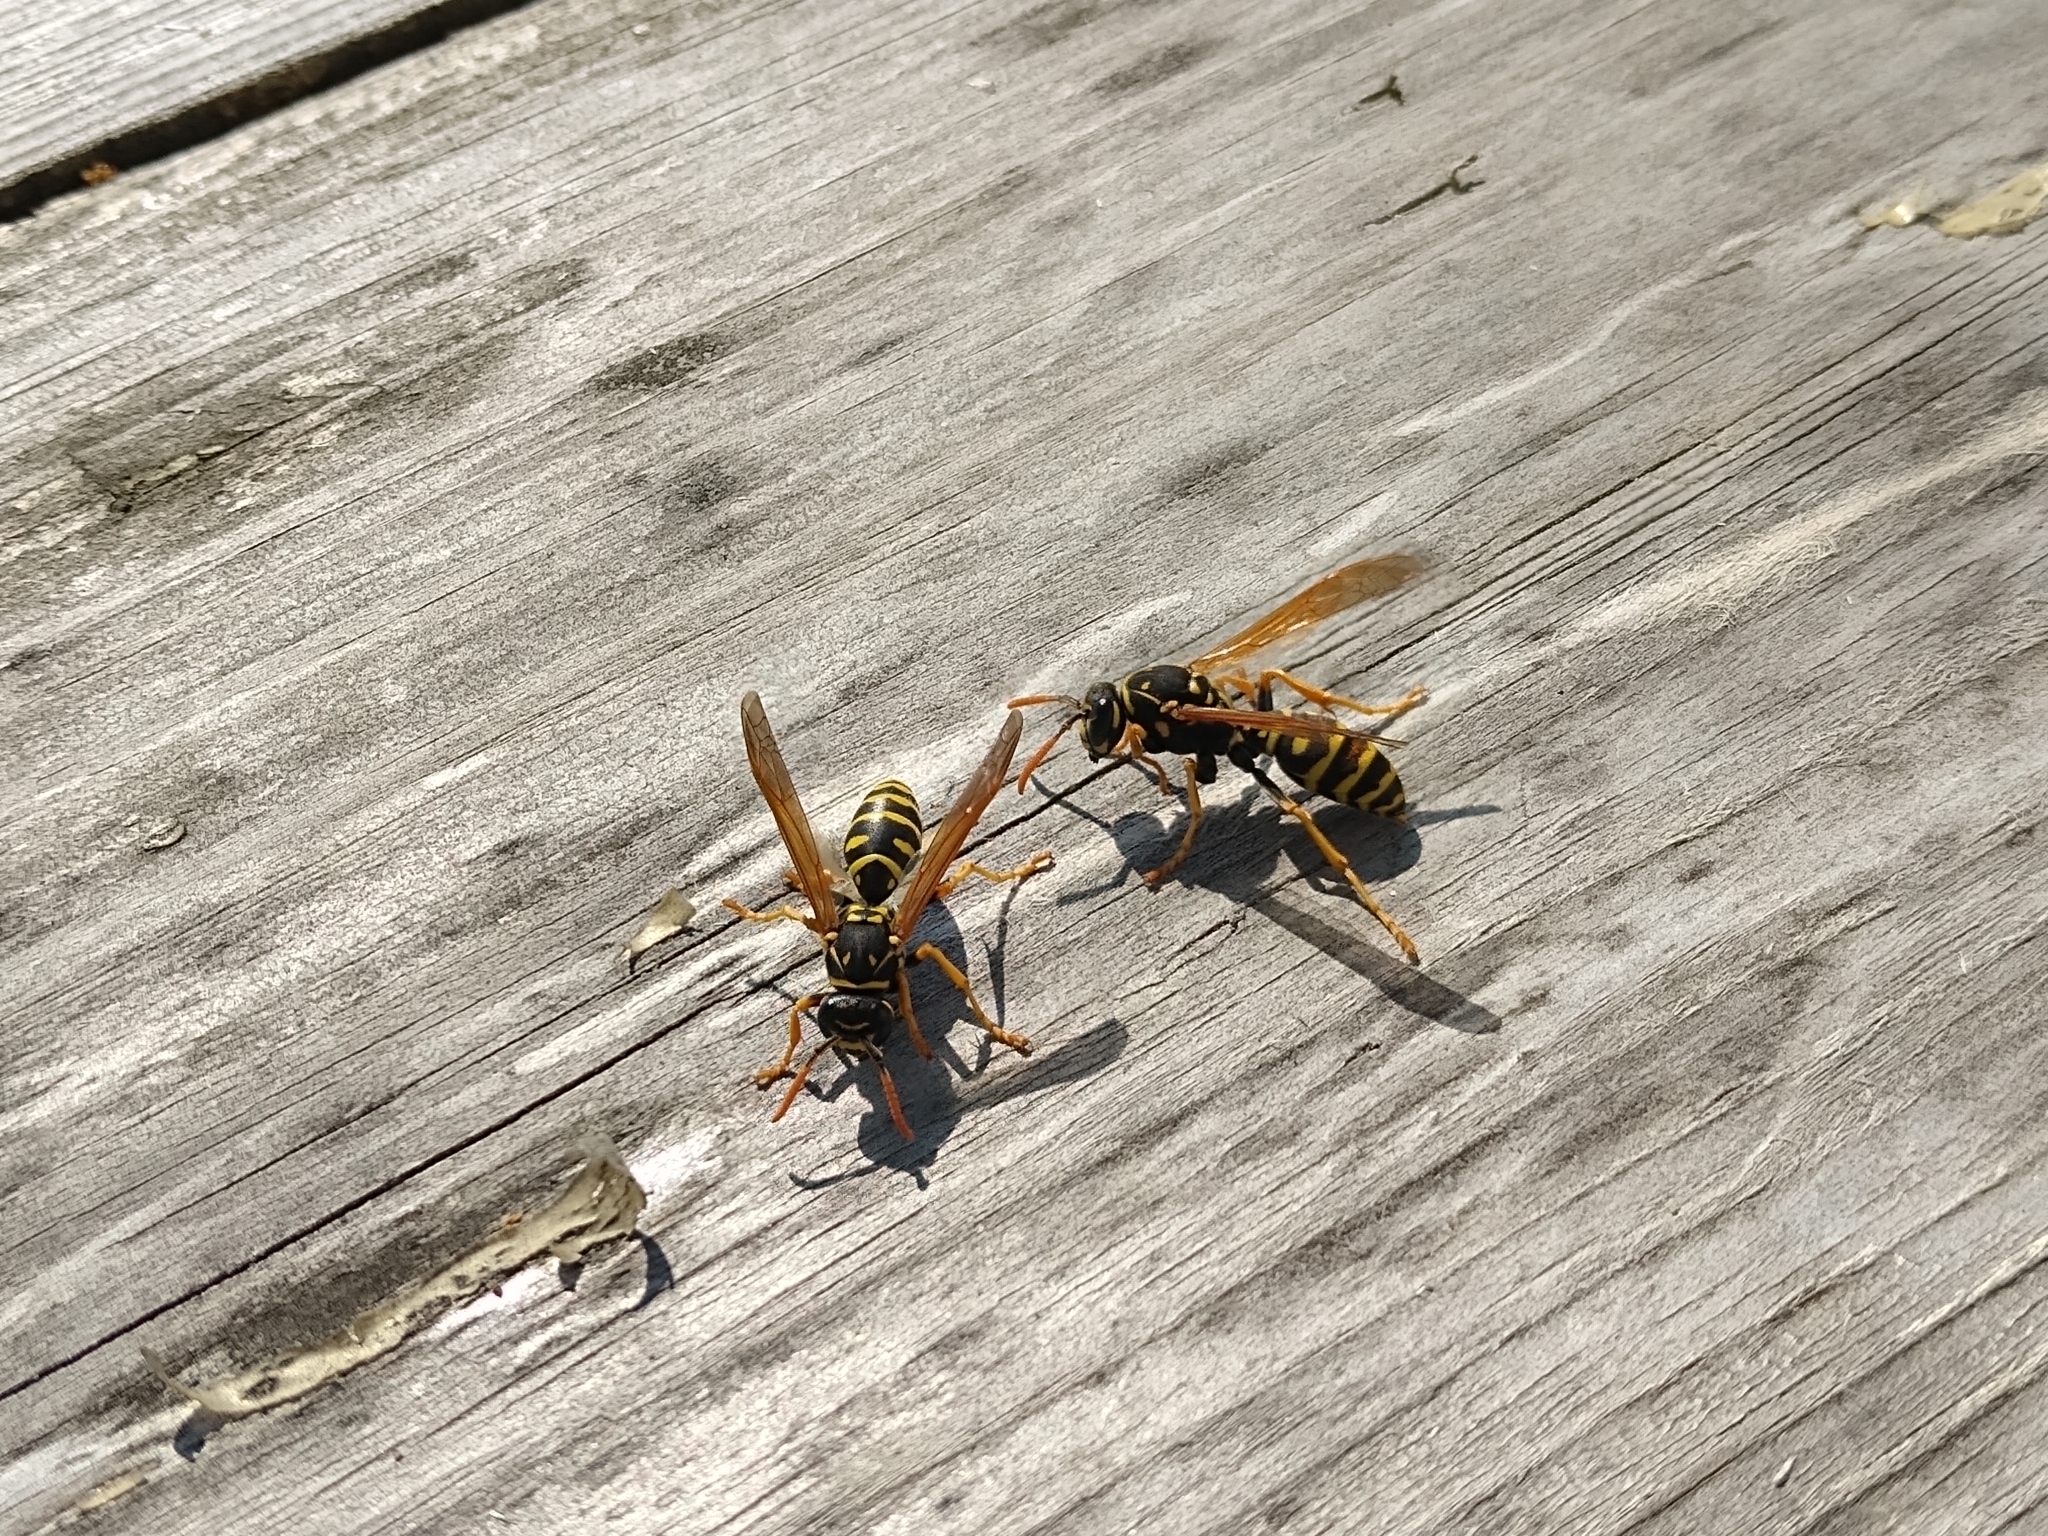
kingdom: Animalia
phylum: Arthropoda
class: Insecta
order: Hymenoptera
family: Eumenidae
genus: Polistes
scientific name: Polistes dominula
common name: Paper wasp
